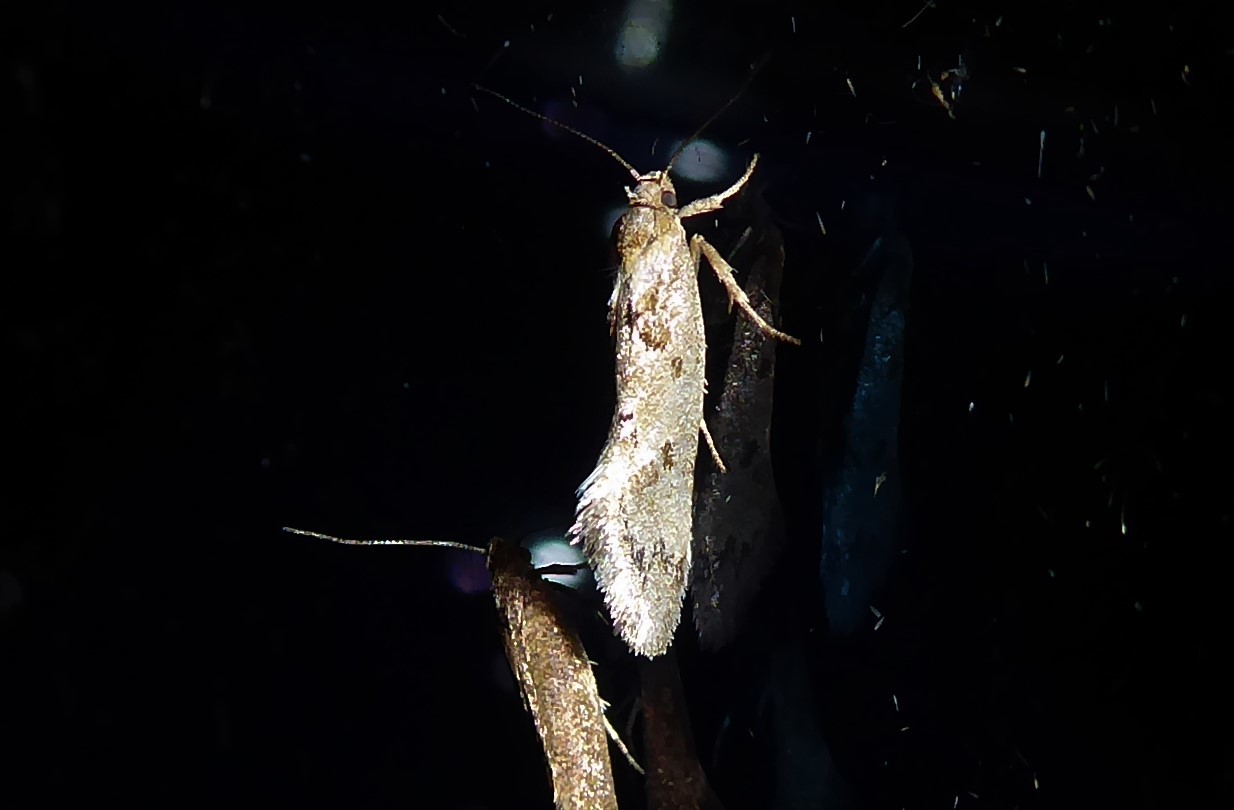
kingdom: Animalia
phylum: Arthropoda
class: Insecta
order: Lepidoptera
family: Oecophoridae
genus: Tingena
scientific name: Tingena brachyacma
